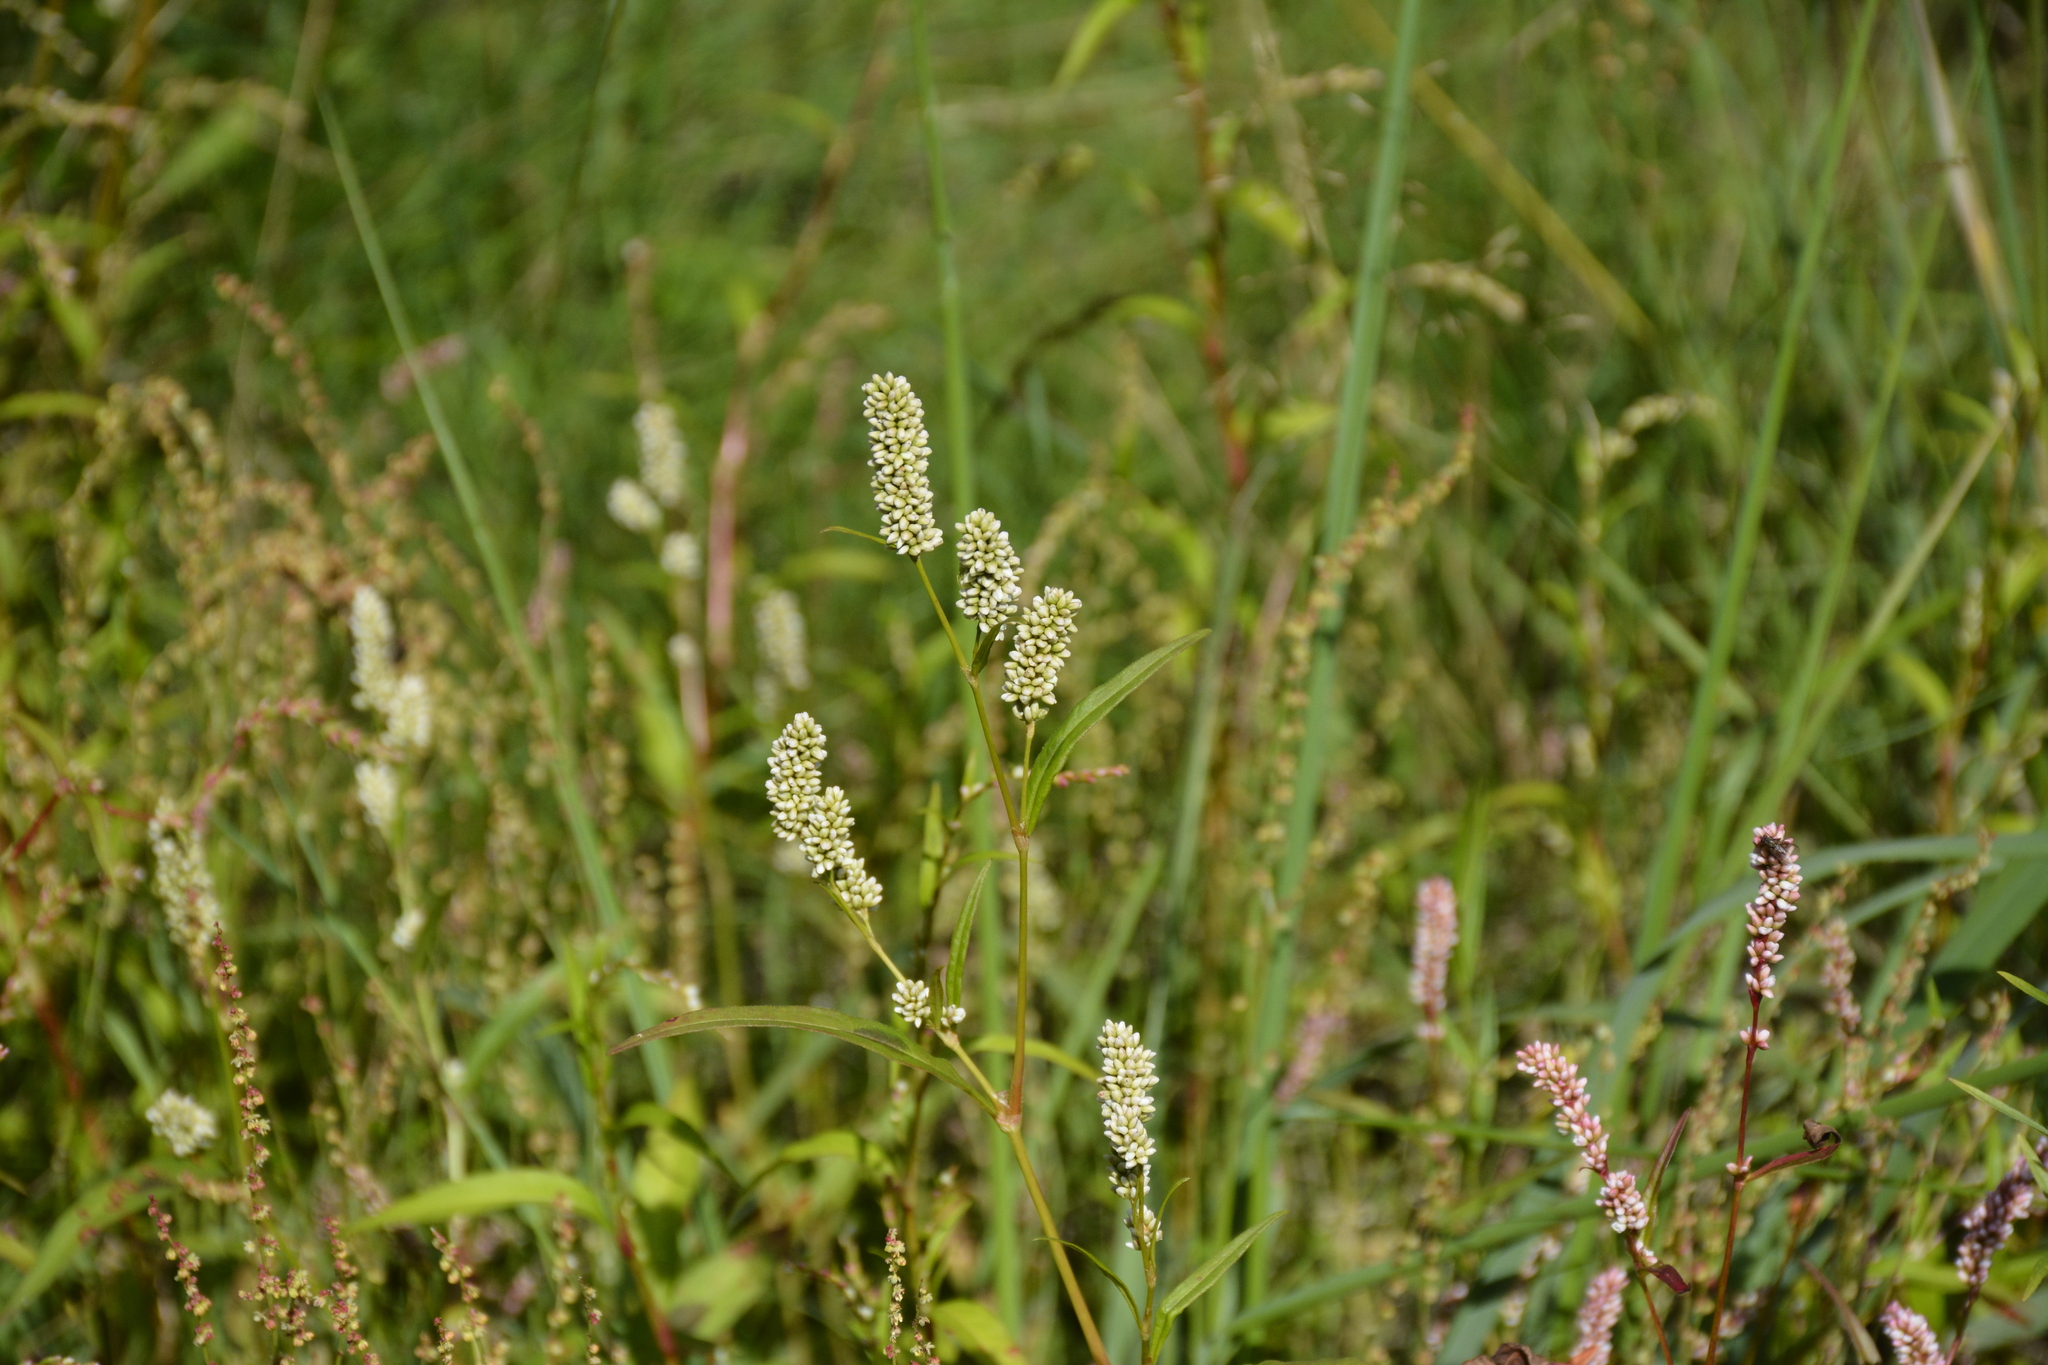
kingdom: Plantae
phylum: Tracheophyta
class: Magnoliopsida
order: Caryophyllales
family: Polygonaceae
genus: Persicaria
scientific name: Persicaria lapathifolia
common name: Curlytop knotweed
